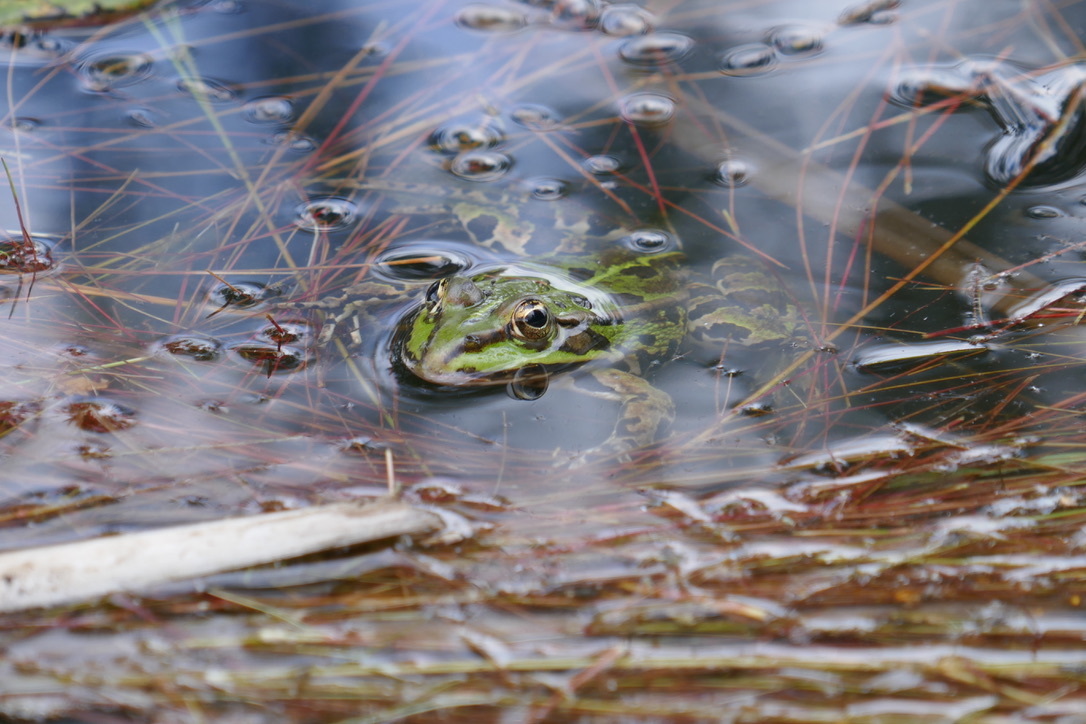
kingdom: Animalia
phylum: Chordata
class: Amphibia
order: Anura
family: Ranidae
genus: Pelophylax
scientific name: Pelophylax
